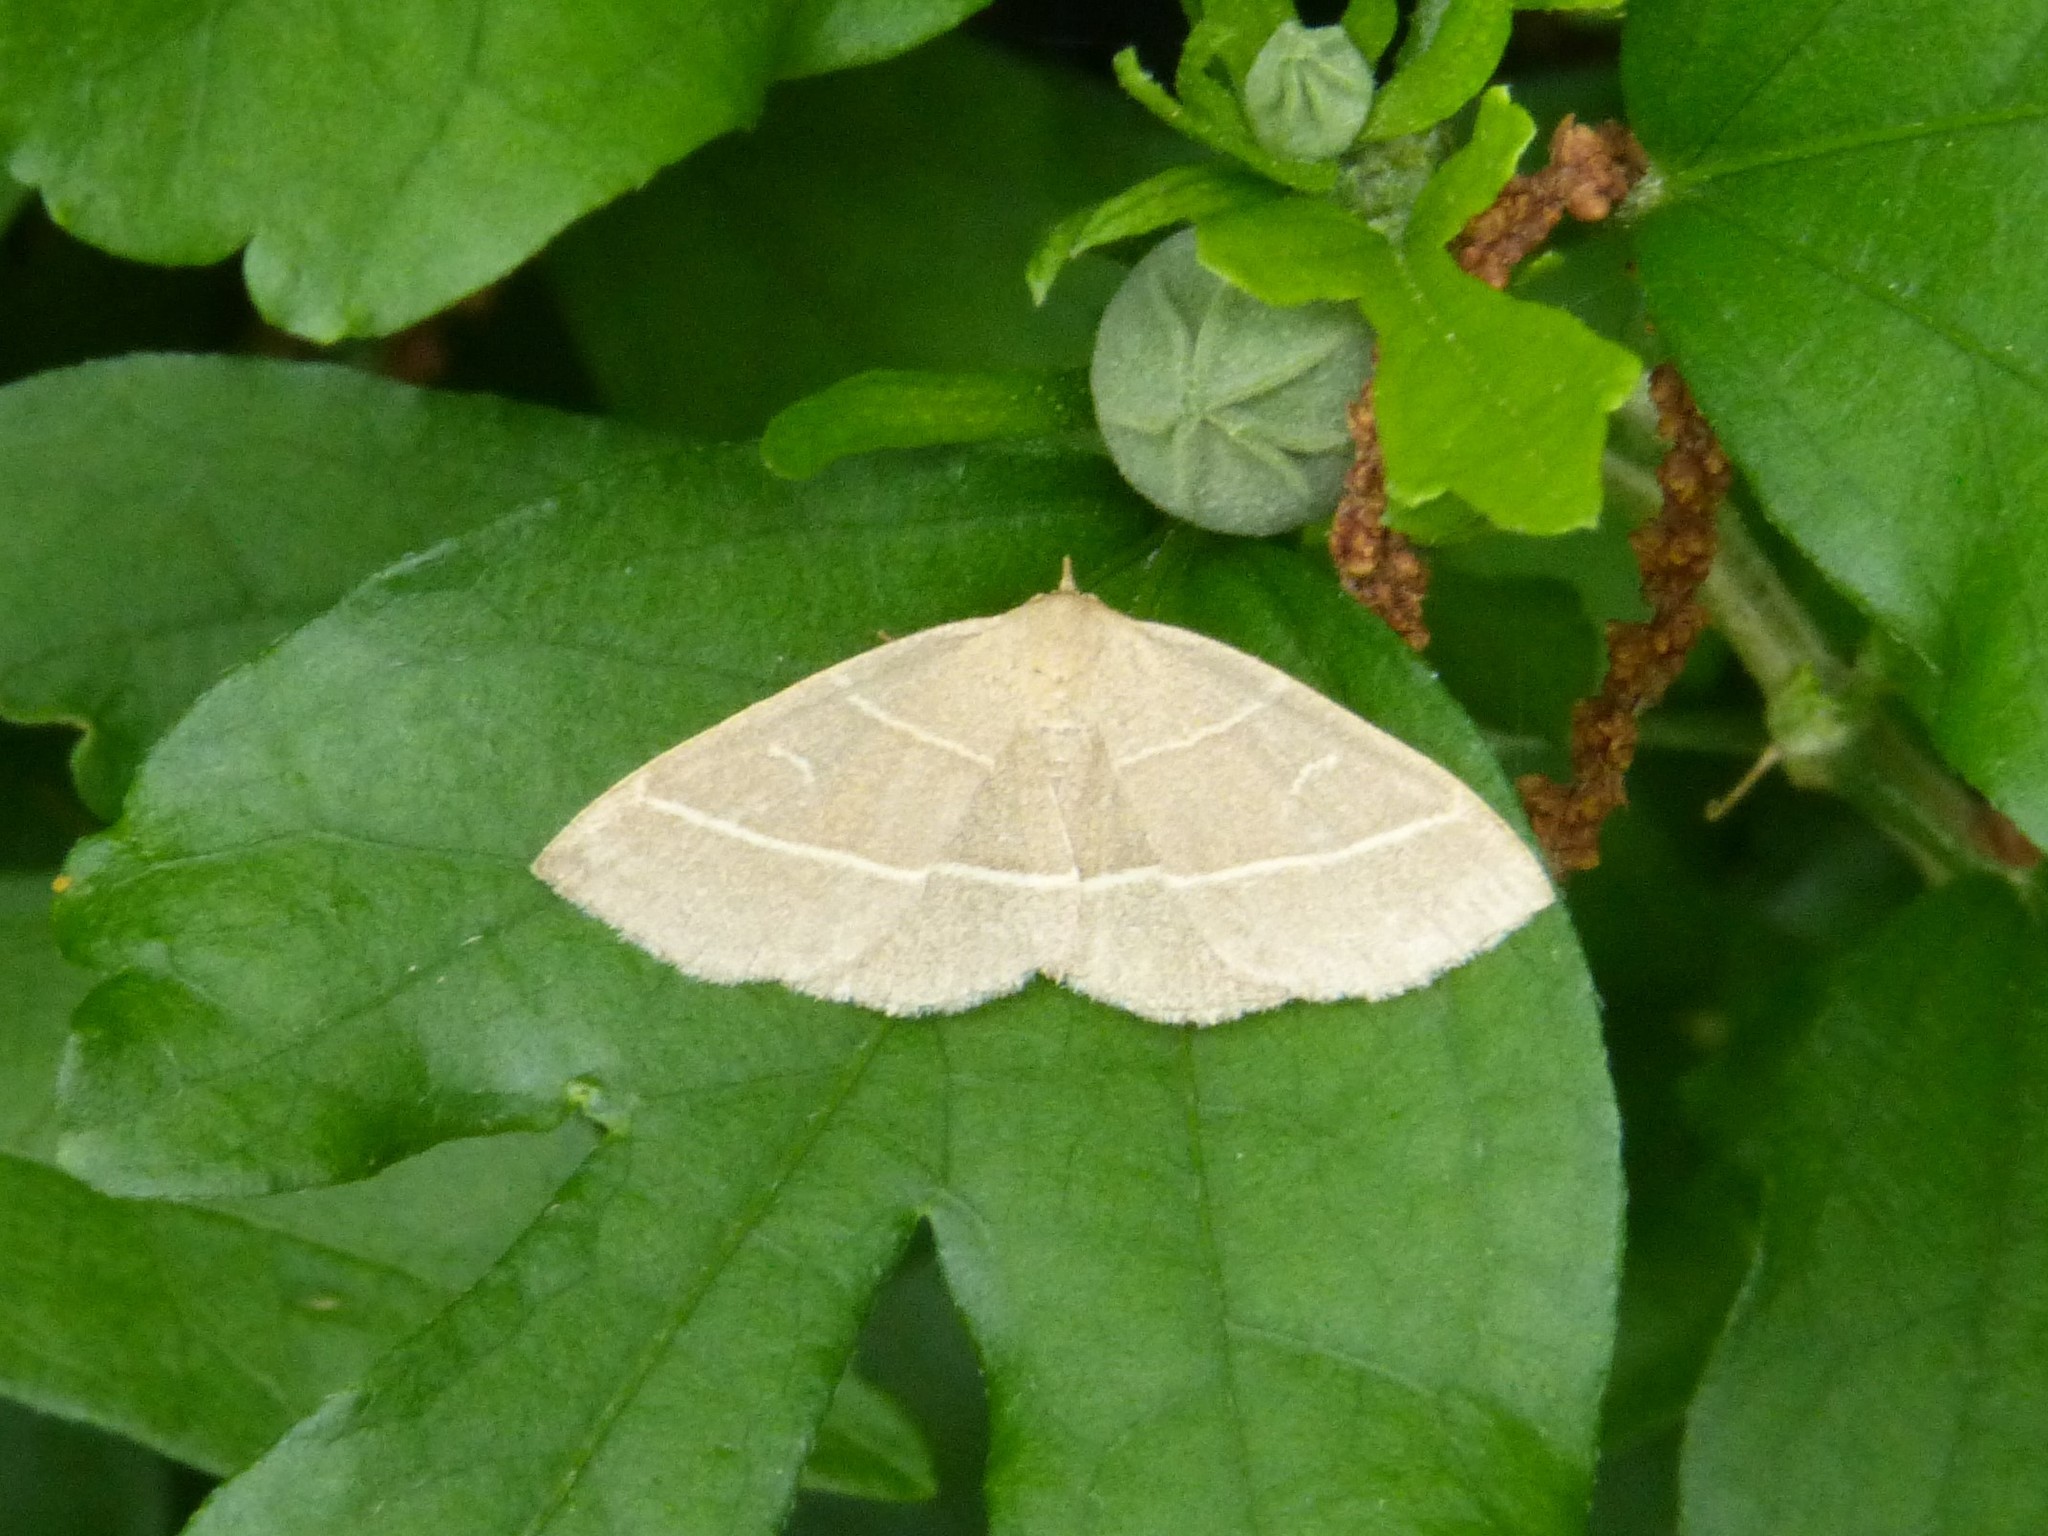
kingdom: Animalia
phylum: Arthropoda
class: Insecta
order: Lepidoptera
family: Erebidae
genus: Trisateles
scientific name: Trisateles emortualis
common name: Olive crescent
